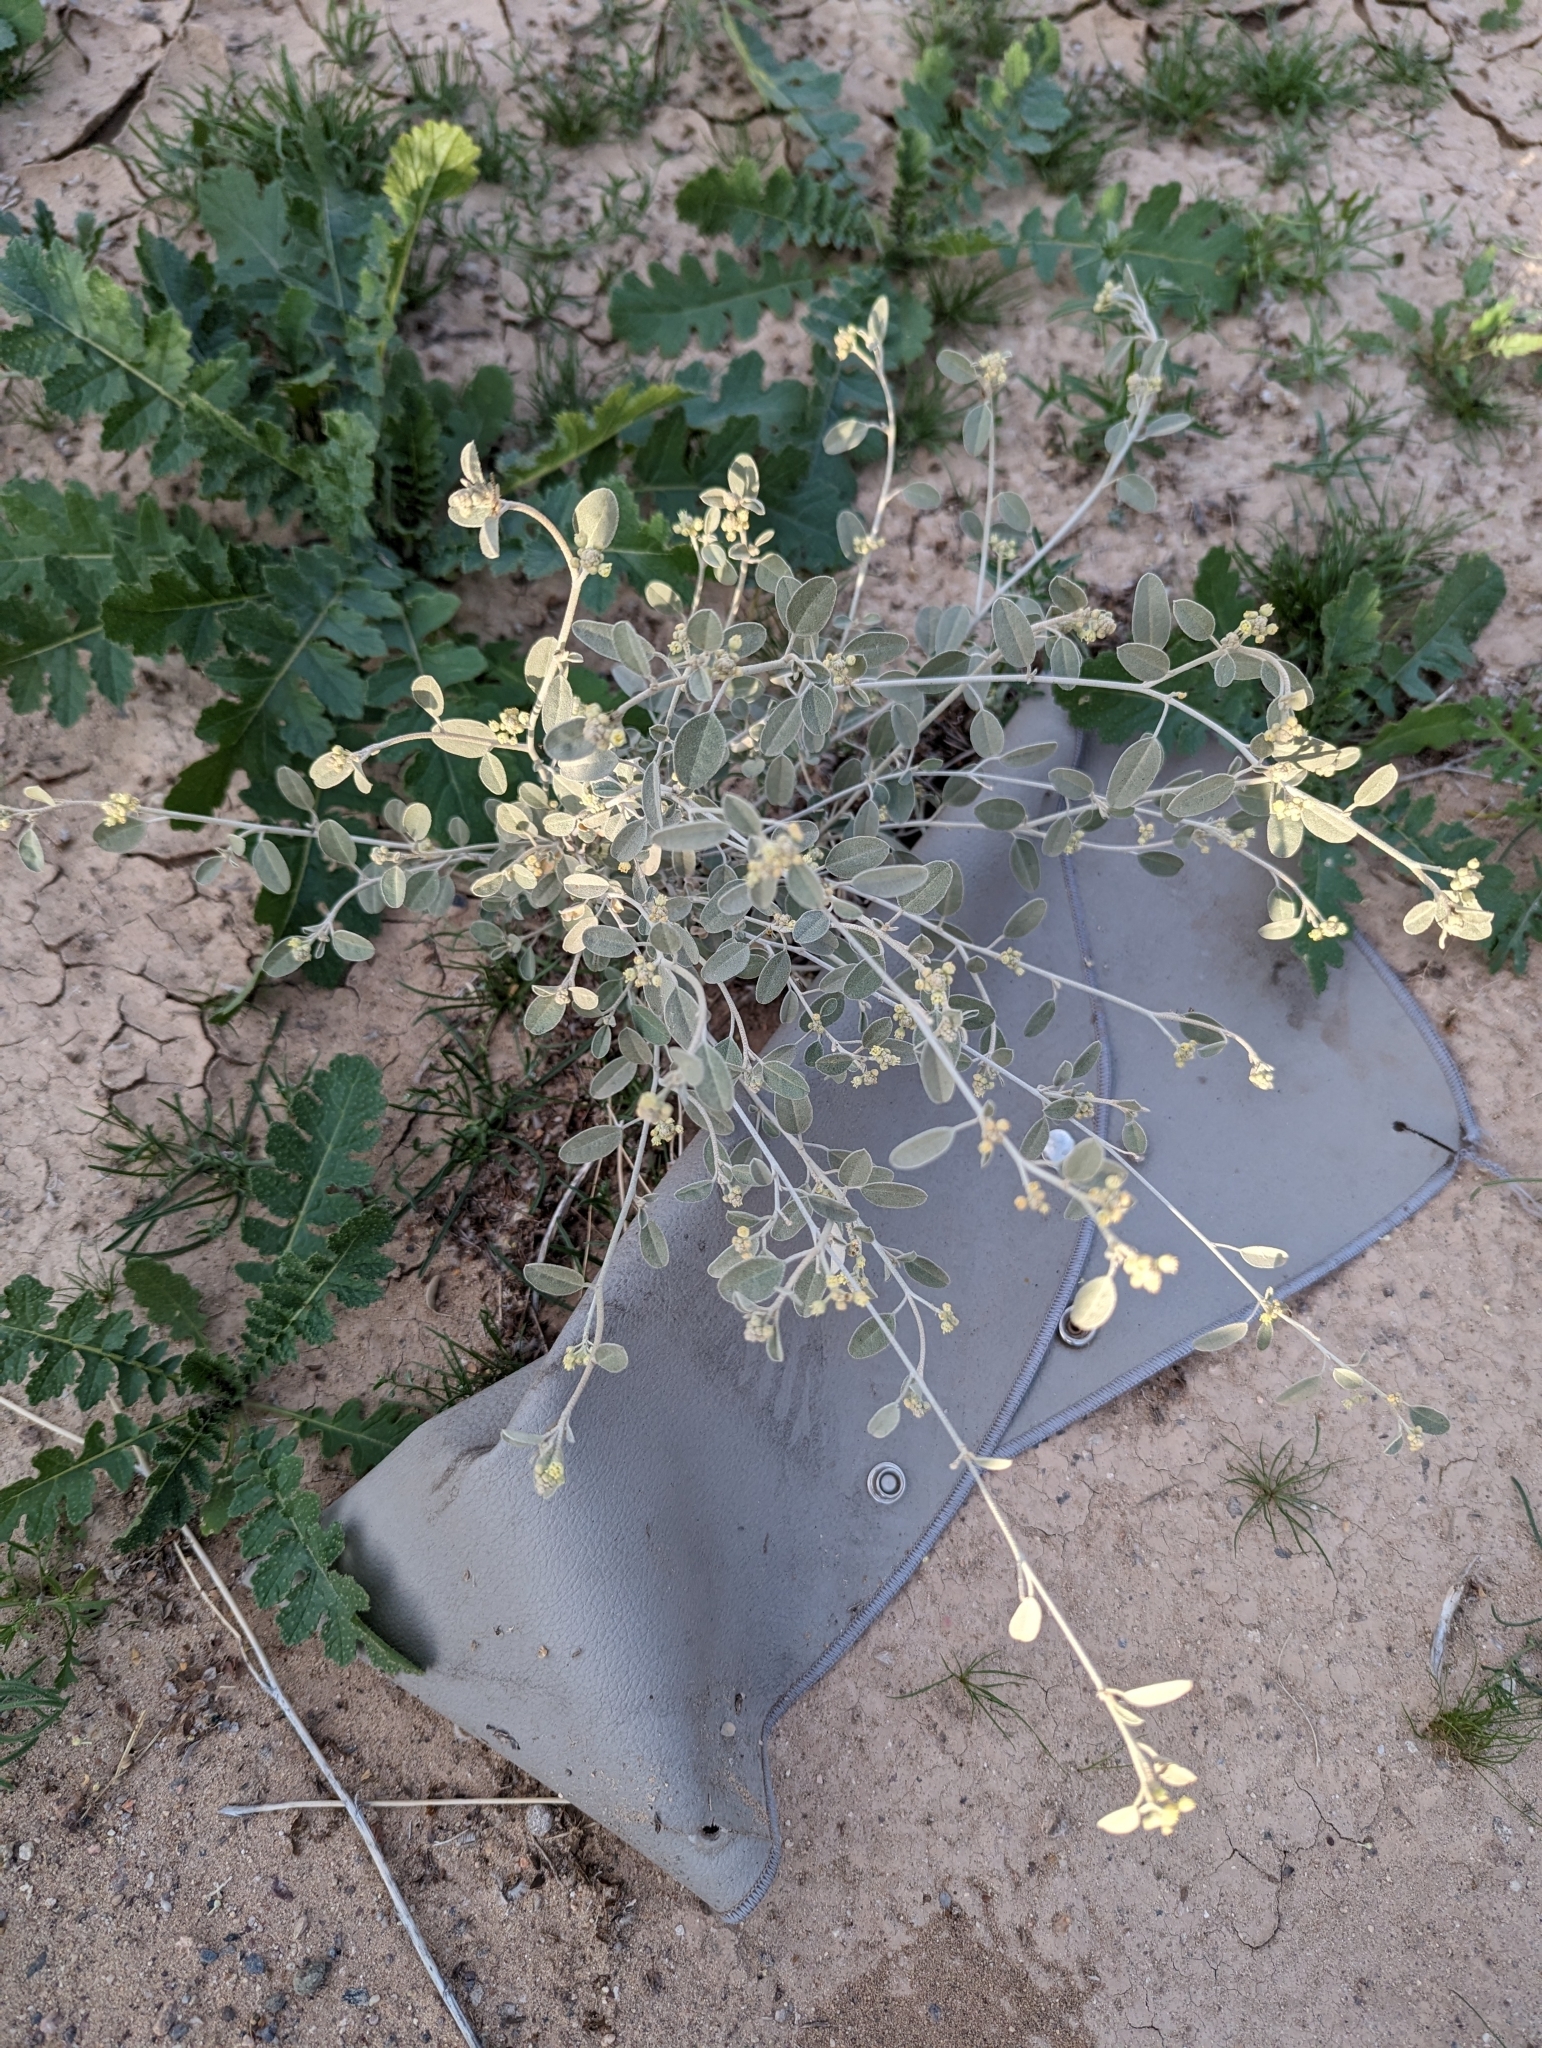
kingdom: Plantae
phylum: Tracheophyta
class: Magnoliopsida
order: Malpighiales
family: Euphorbiaceae
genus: Croton
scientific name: Croton californicus
